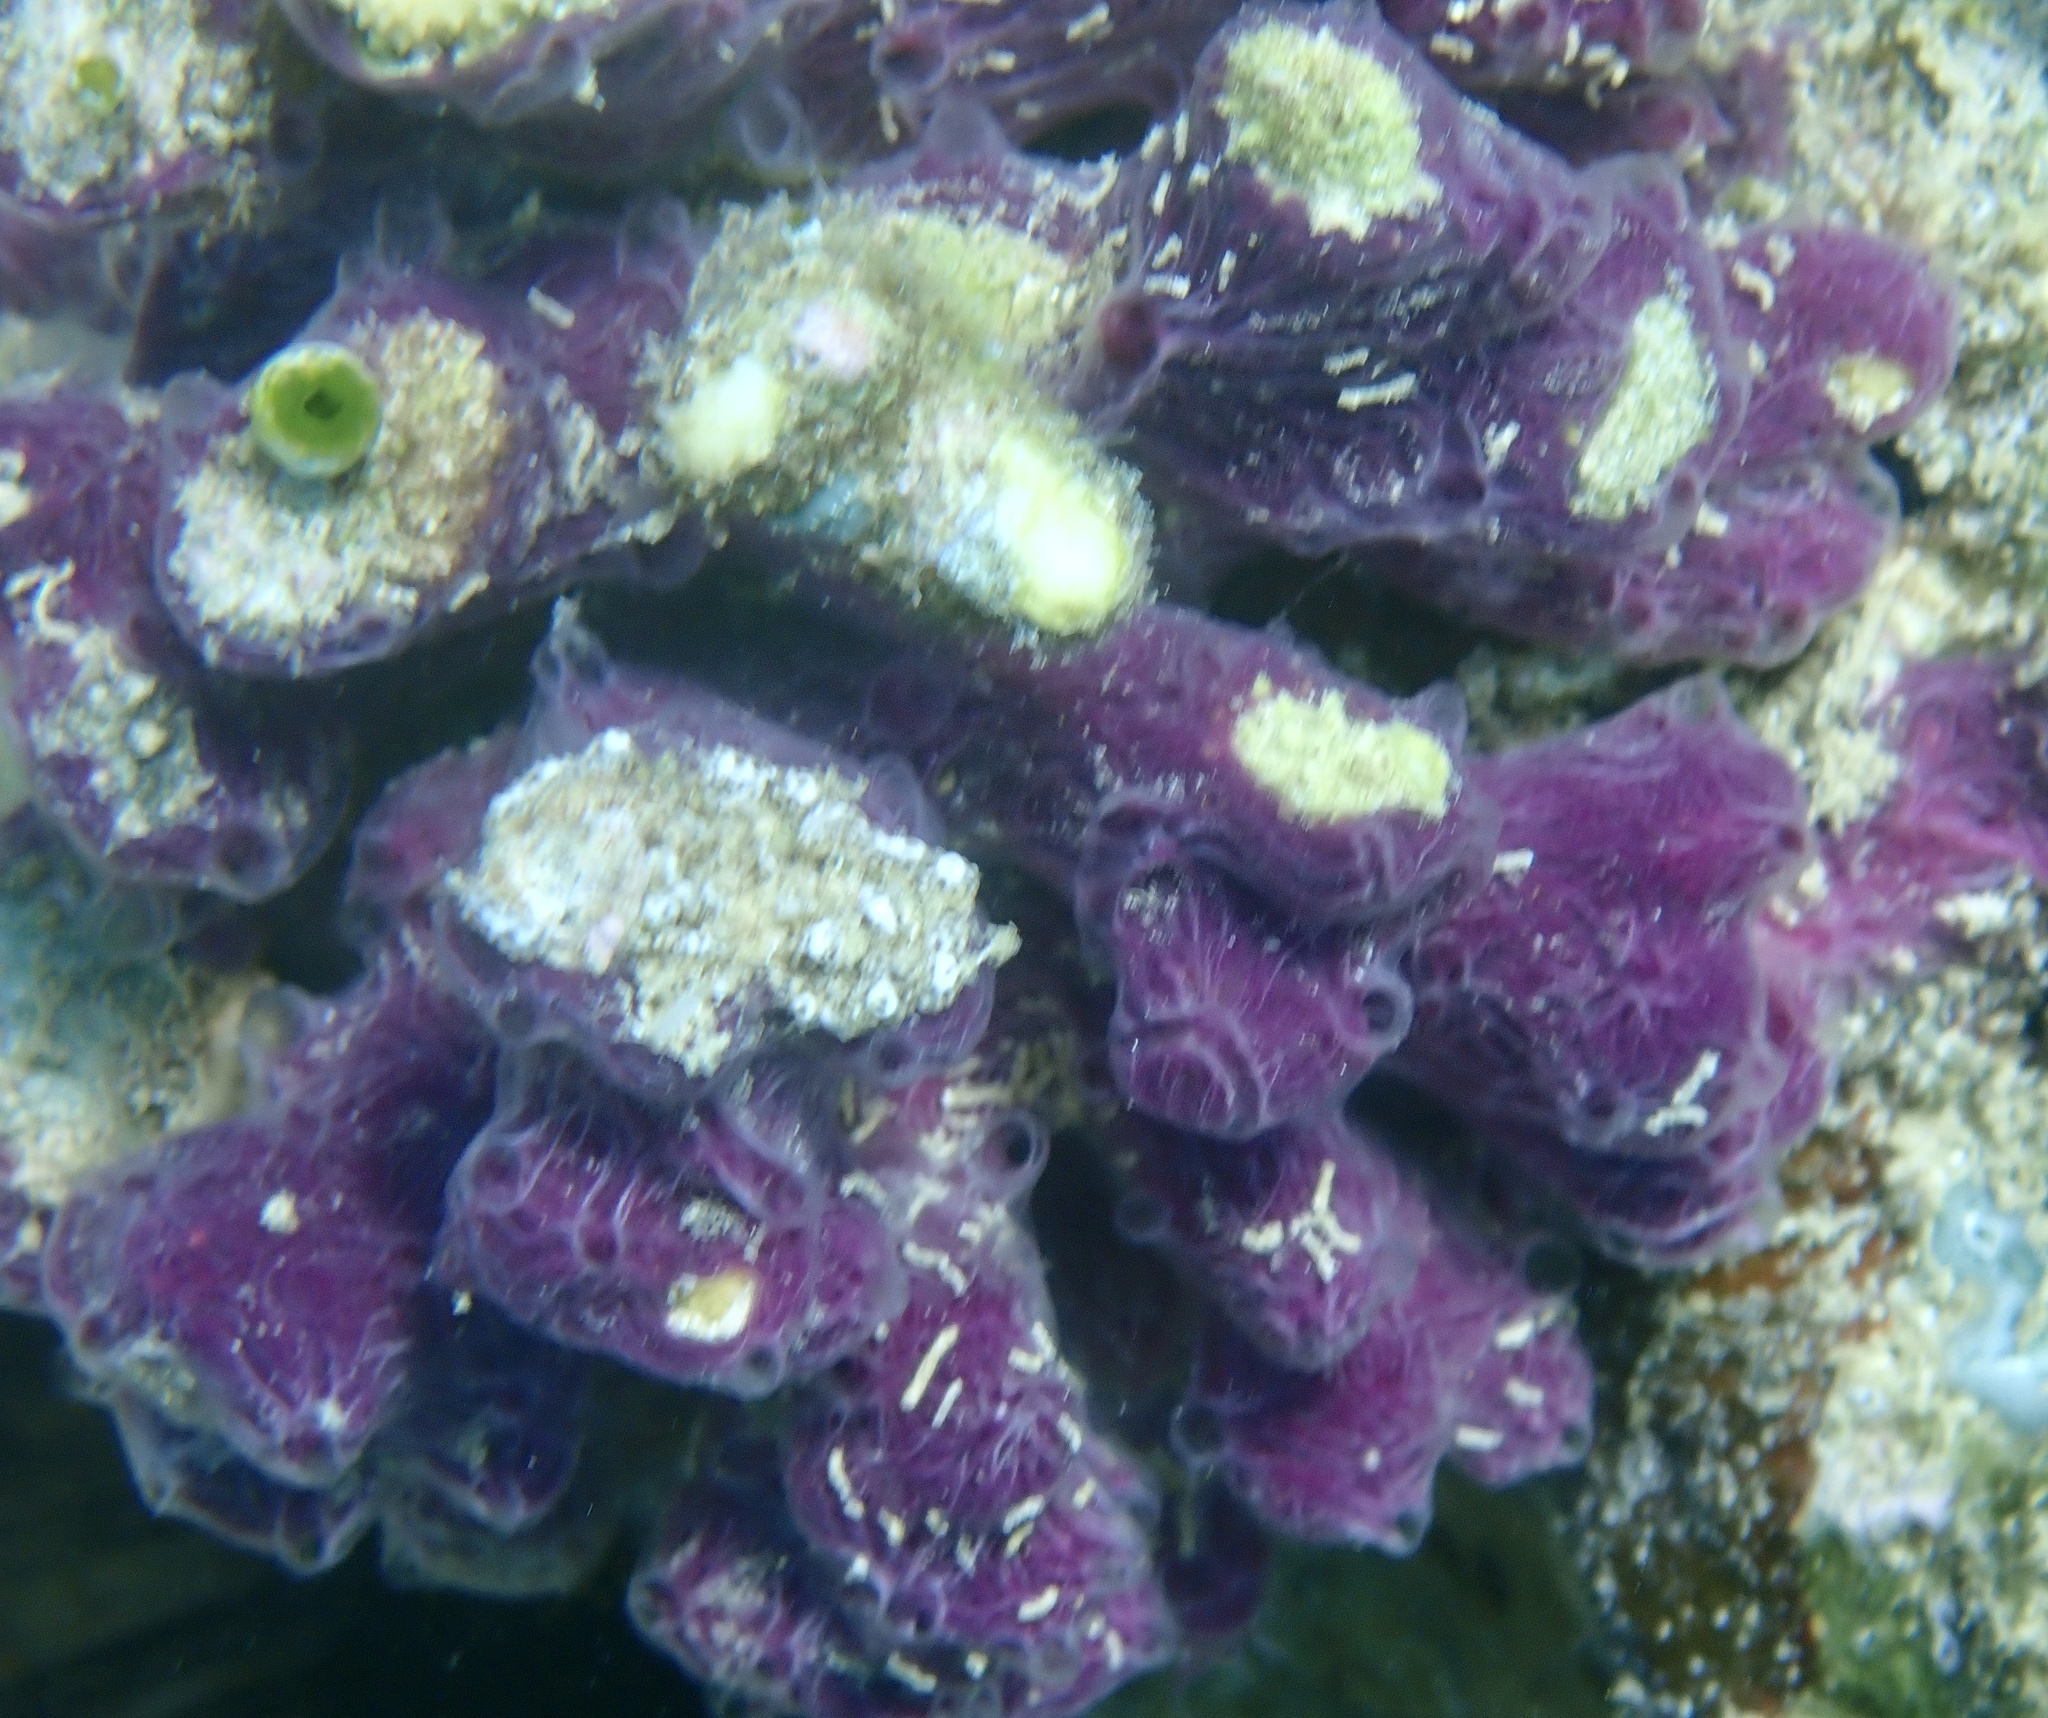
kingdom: Animalia
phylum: Porifera
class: Demospongiae
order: Haplosclerida
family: Chalinidae
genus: Chalinula
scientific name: Chalinula nematifera
